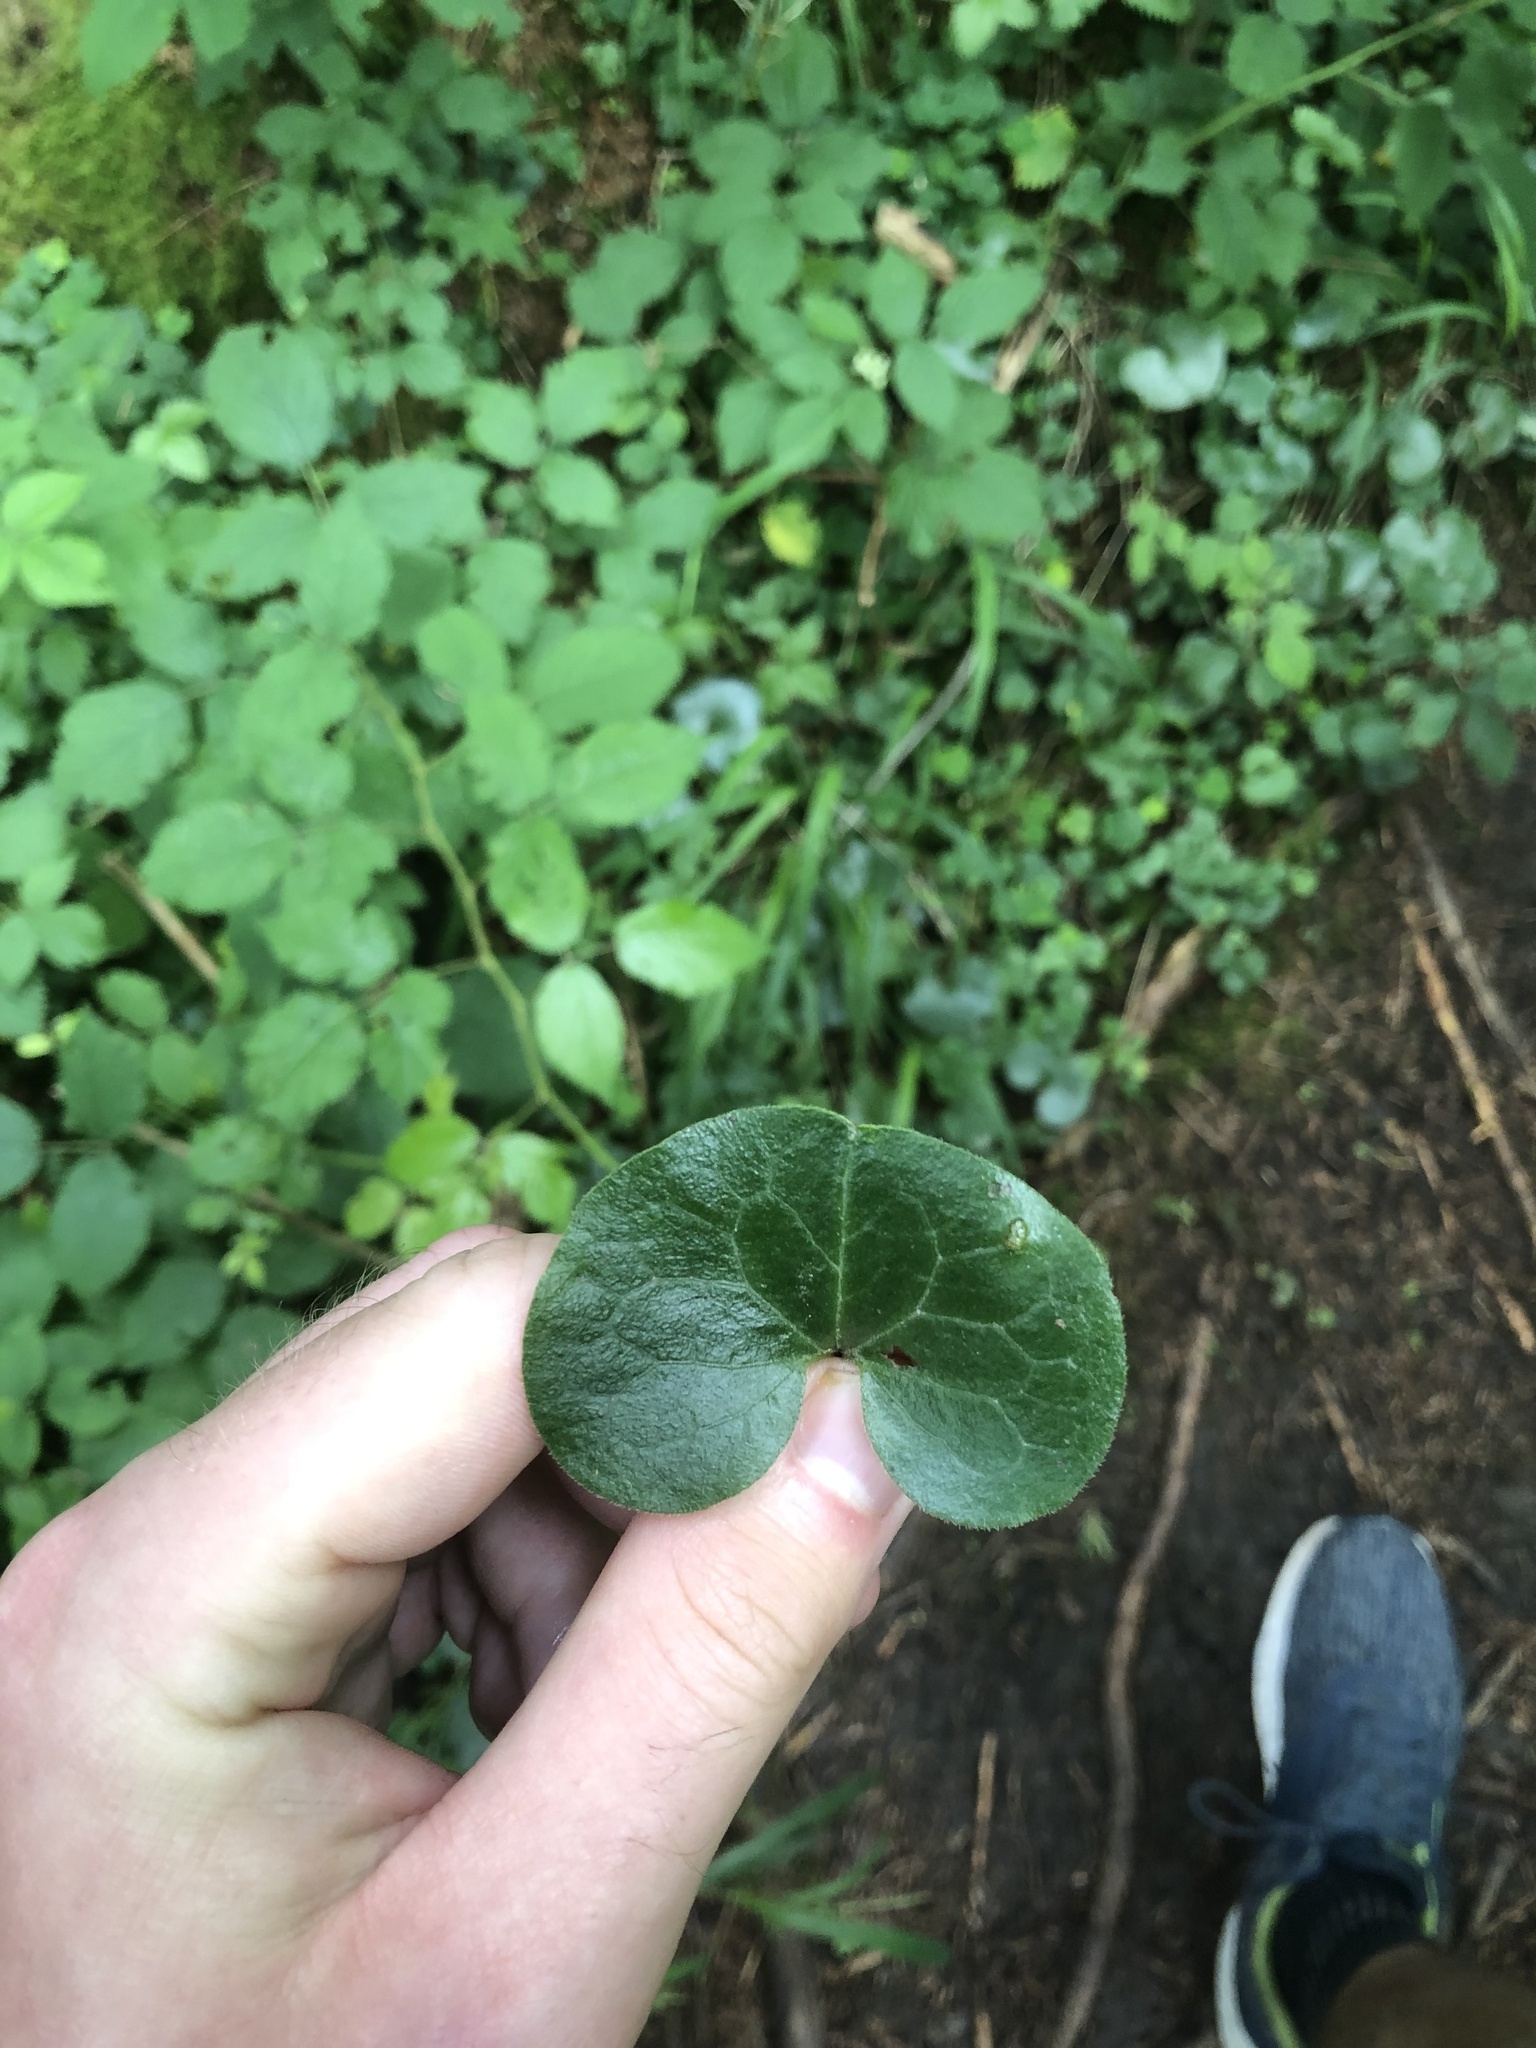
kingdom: Plantae
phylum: Tracheophyta
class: Magnoliopsida
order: Piperales
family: Aristolochiaceae
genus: Asarum
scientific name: Asarum europaeum
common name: Asarabacca
